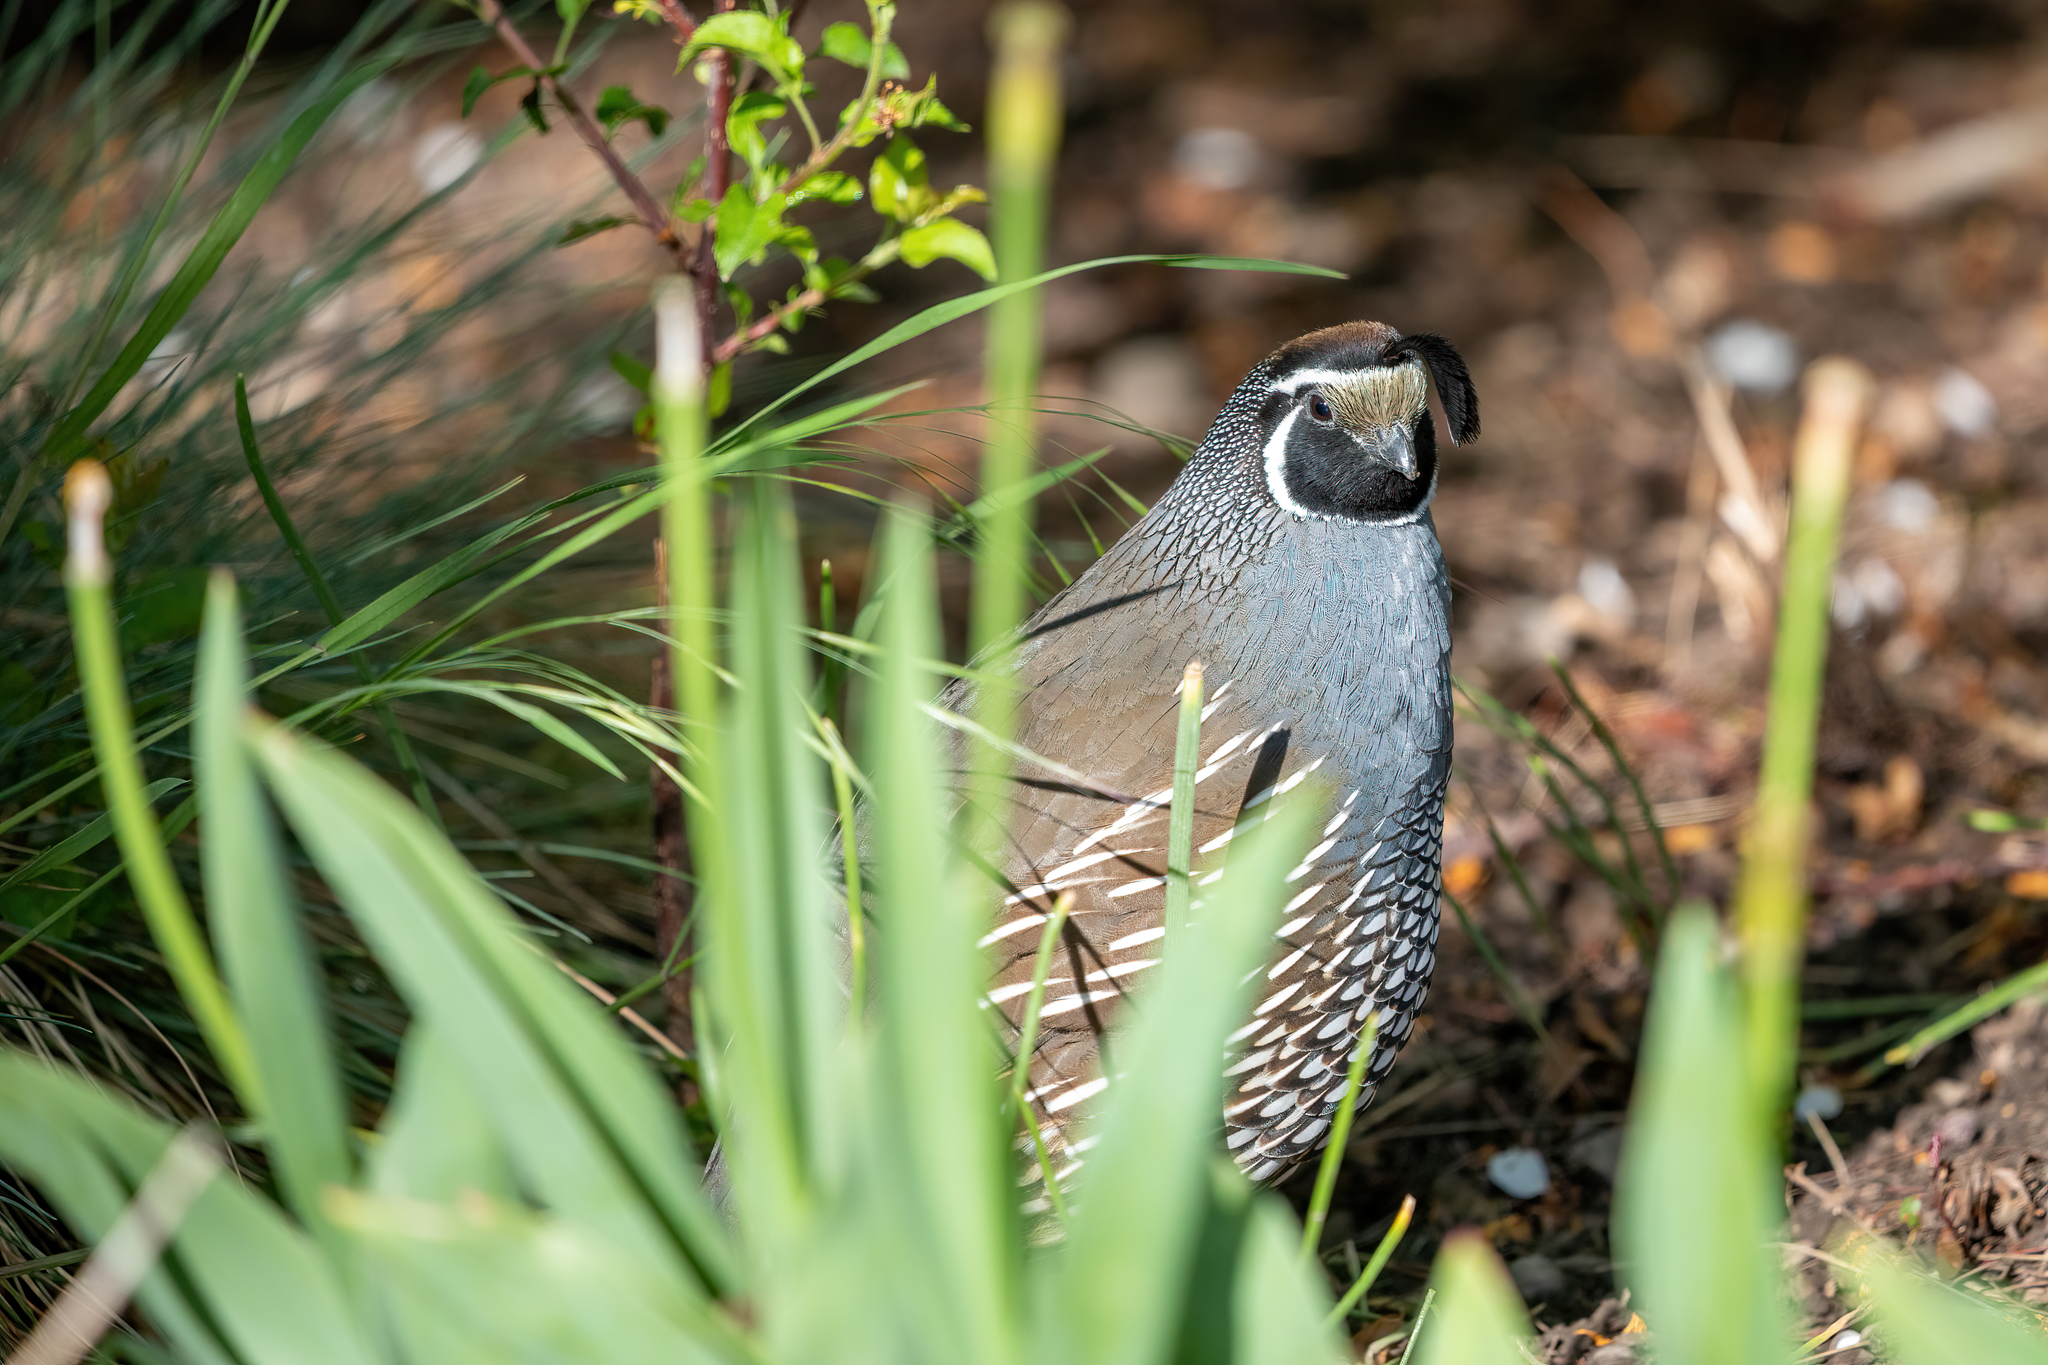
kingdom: Animalia
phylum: Chordata
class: Aves
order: Galliformes
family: Odontophoridae
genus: Callipepla
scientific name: Callipepla californica
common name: California quail
